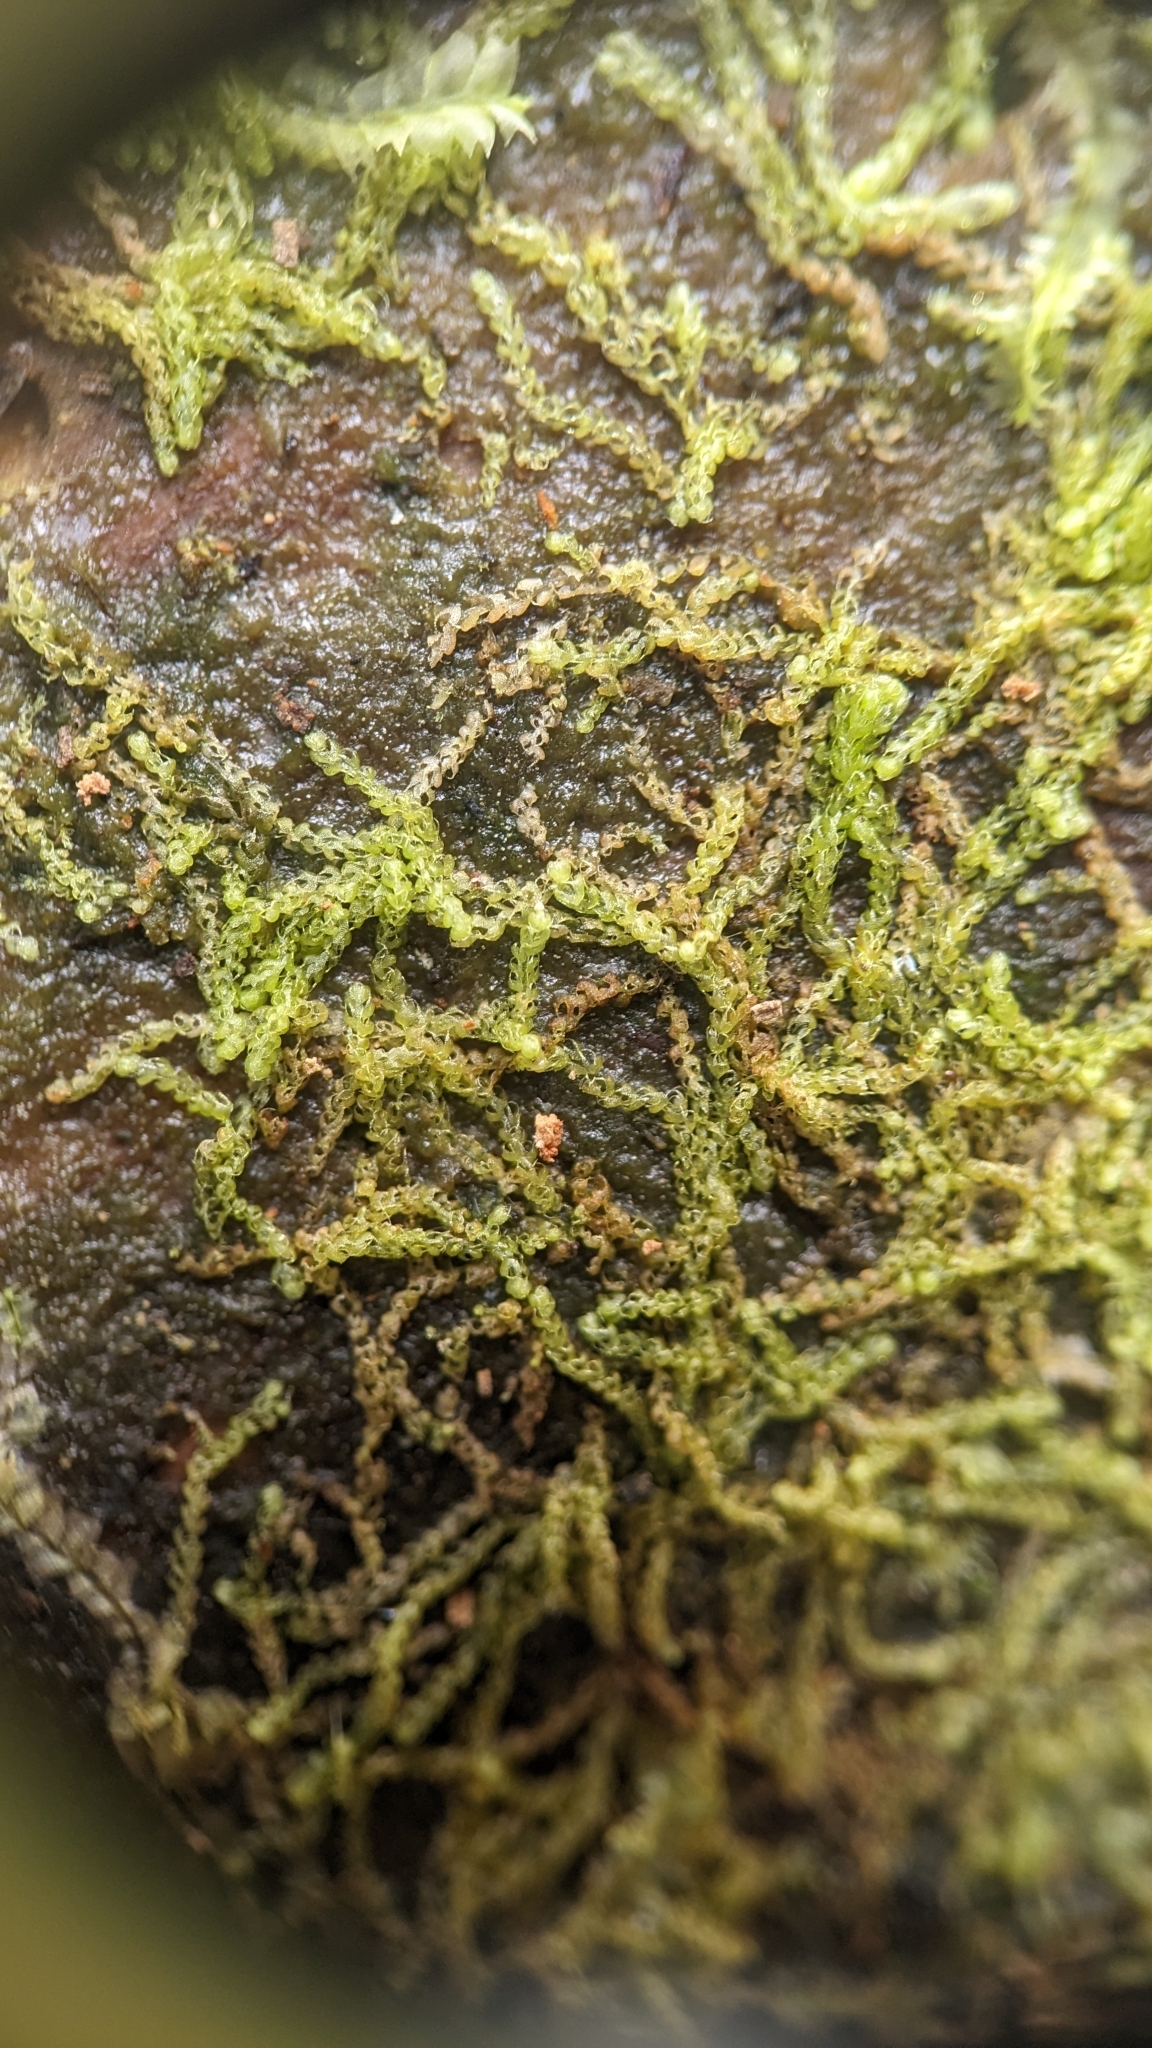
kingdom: Plantae
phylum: Marchantiophyta
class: Jungermanniopsida
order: Jungermanniales
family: Cephaloziaceae
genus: Nowellia
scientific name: Nowellia curvifolia
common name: Wood rustwort
